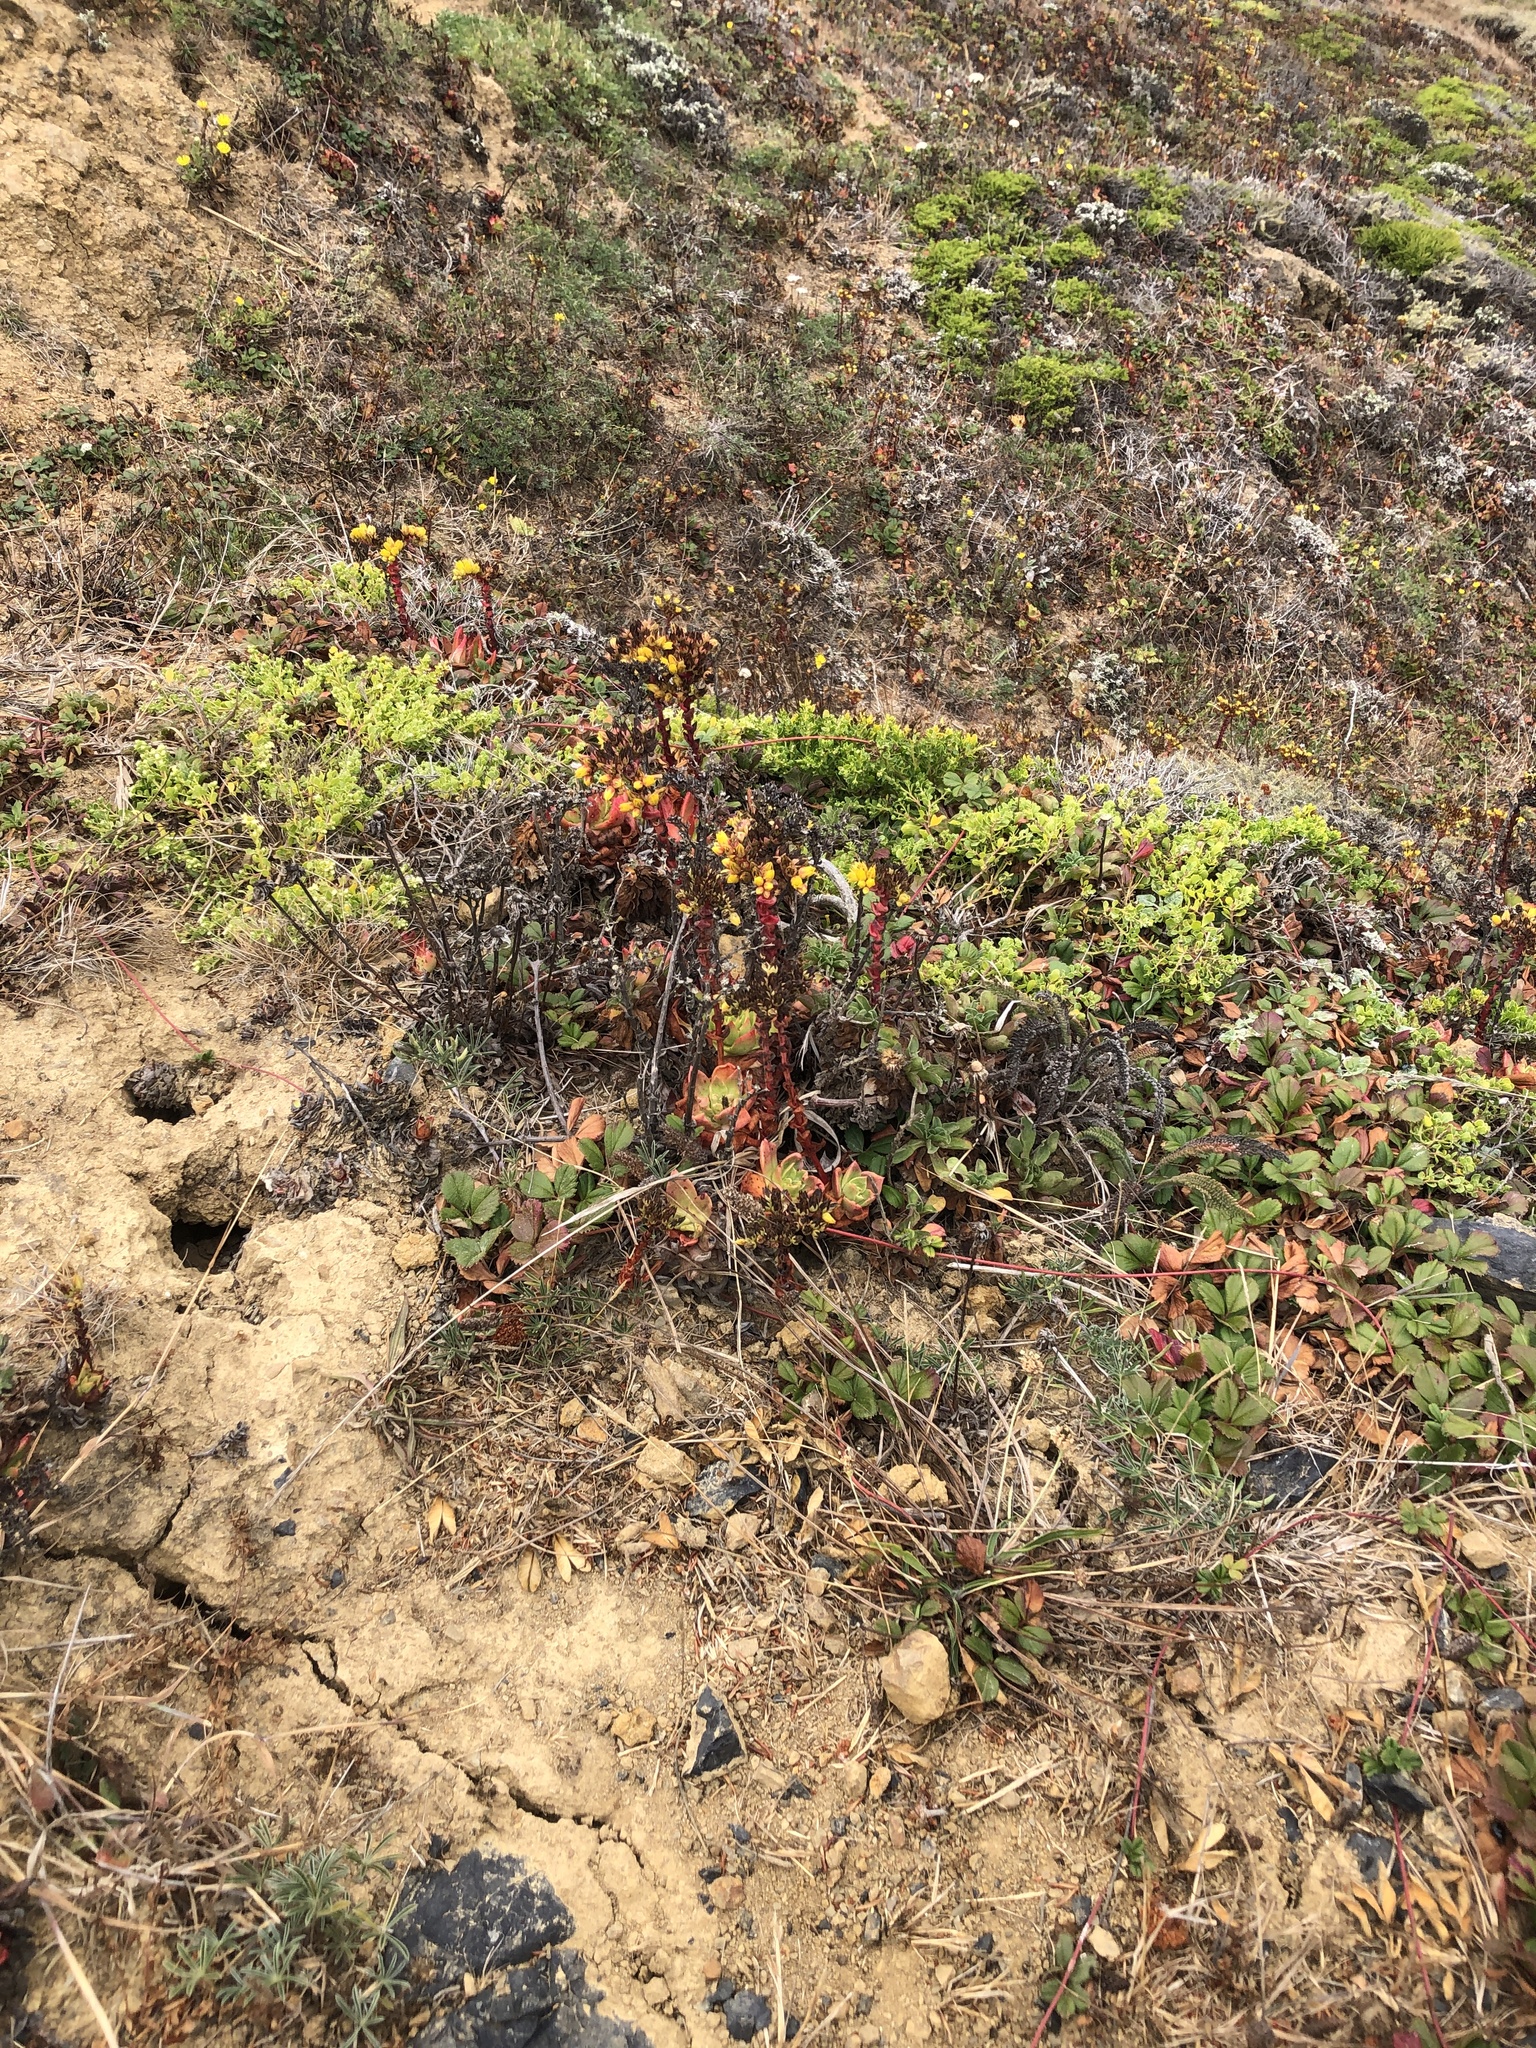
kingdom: Plantae
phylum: Tracheophyta
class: Magnoliopsida
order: Saxifragales
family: Crassulaceae
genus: Dudleya
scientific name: Dudleya farinosa
